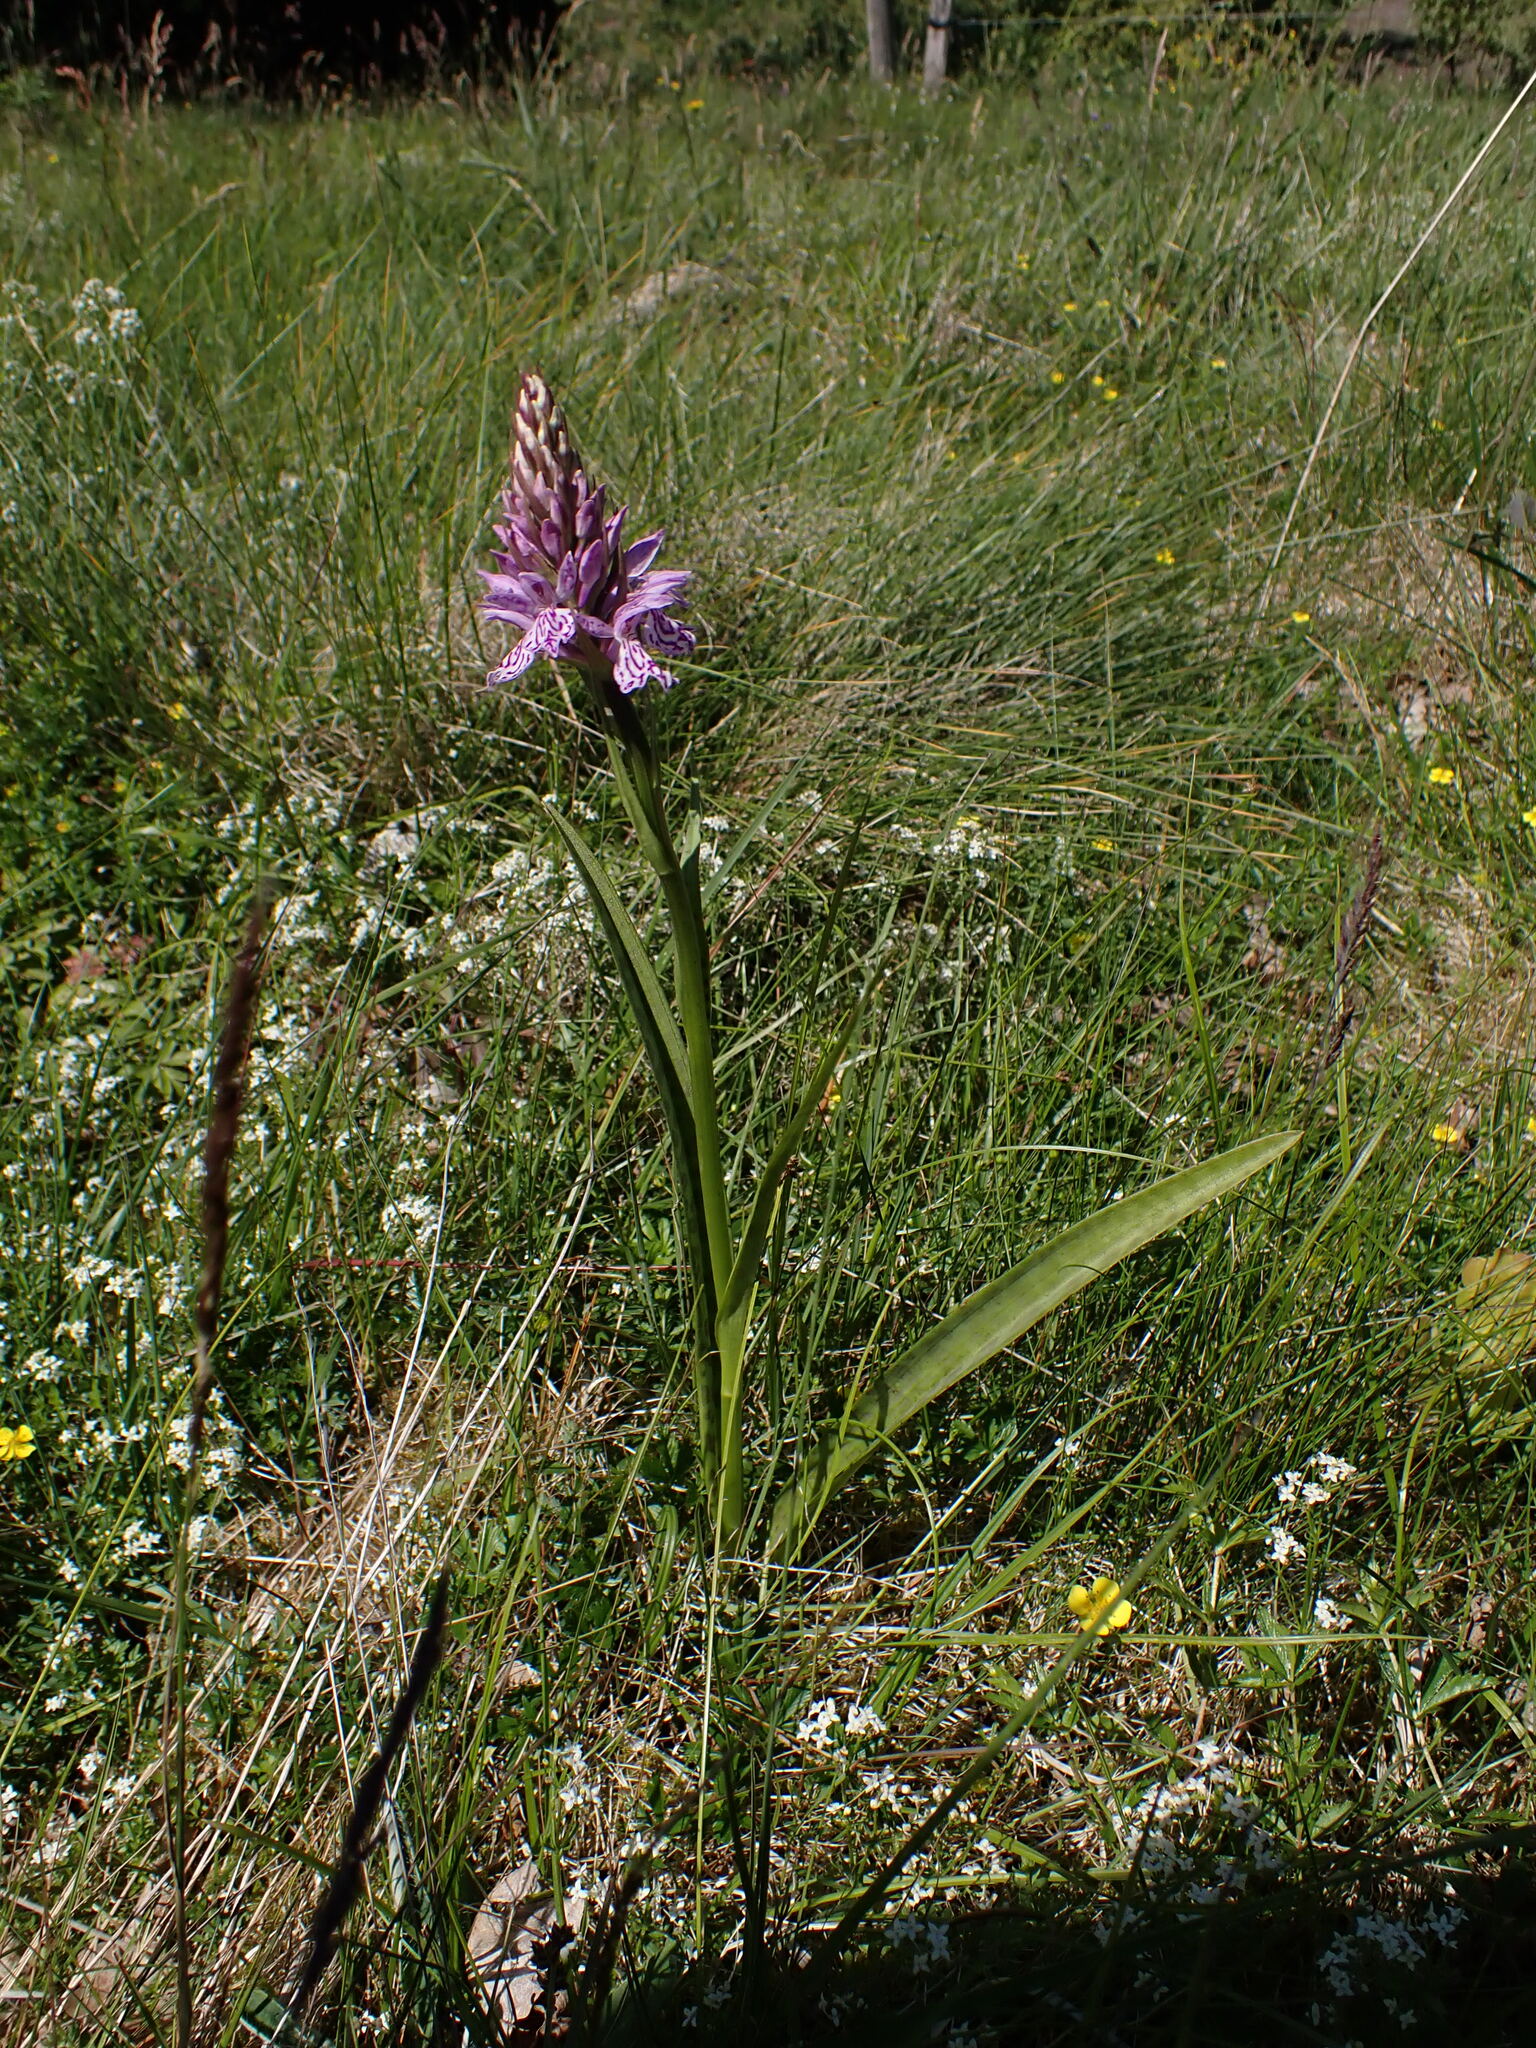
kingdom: Plantae
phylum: Tracheophyta
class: Liliopsida
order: Asparagales
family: Orchidaceae
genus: Dactylorhiza
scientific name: Dactylorhiza maculata
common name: Heath spotted-orchid
